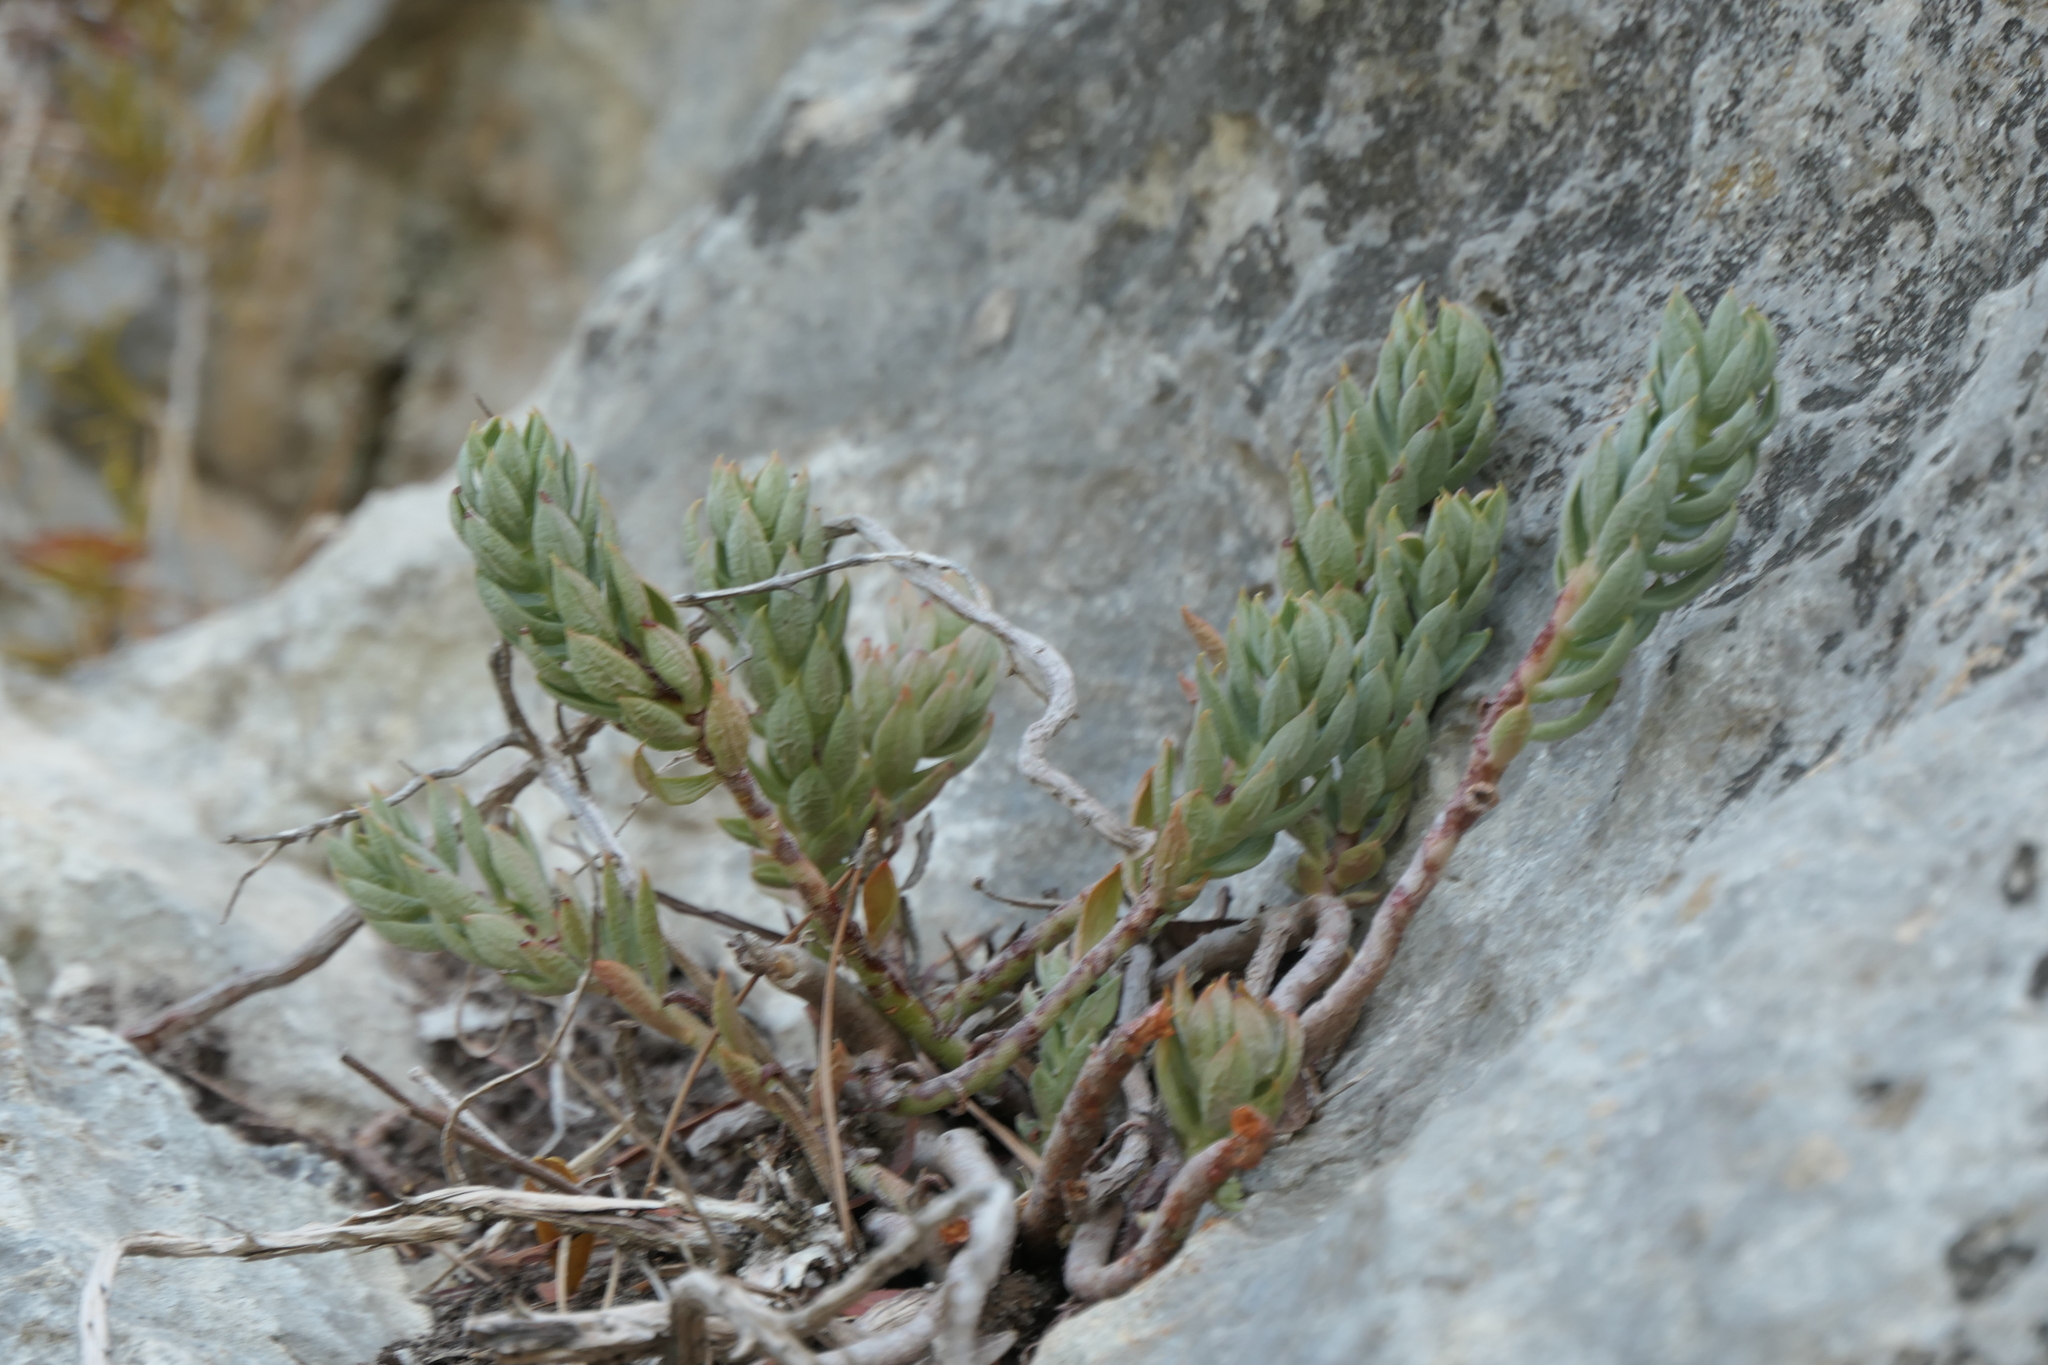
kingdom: Plantae
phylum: Tracheophyta
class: Magnoliopsida
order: Saxifragales
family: Crassulaceae
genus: Petrosedum
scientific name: Petrosedum sediforme
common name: Pale stonecrop
